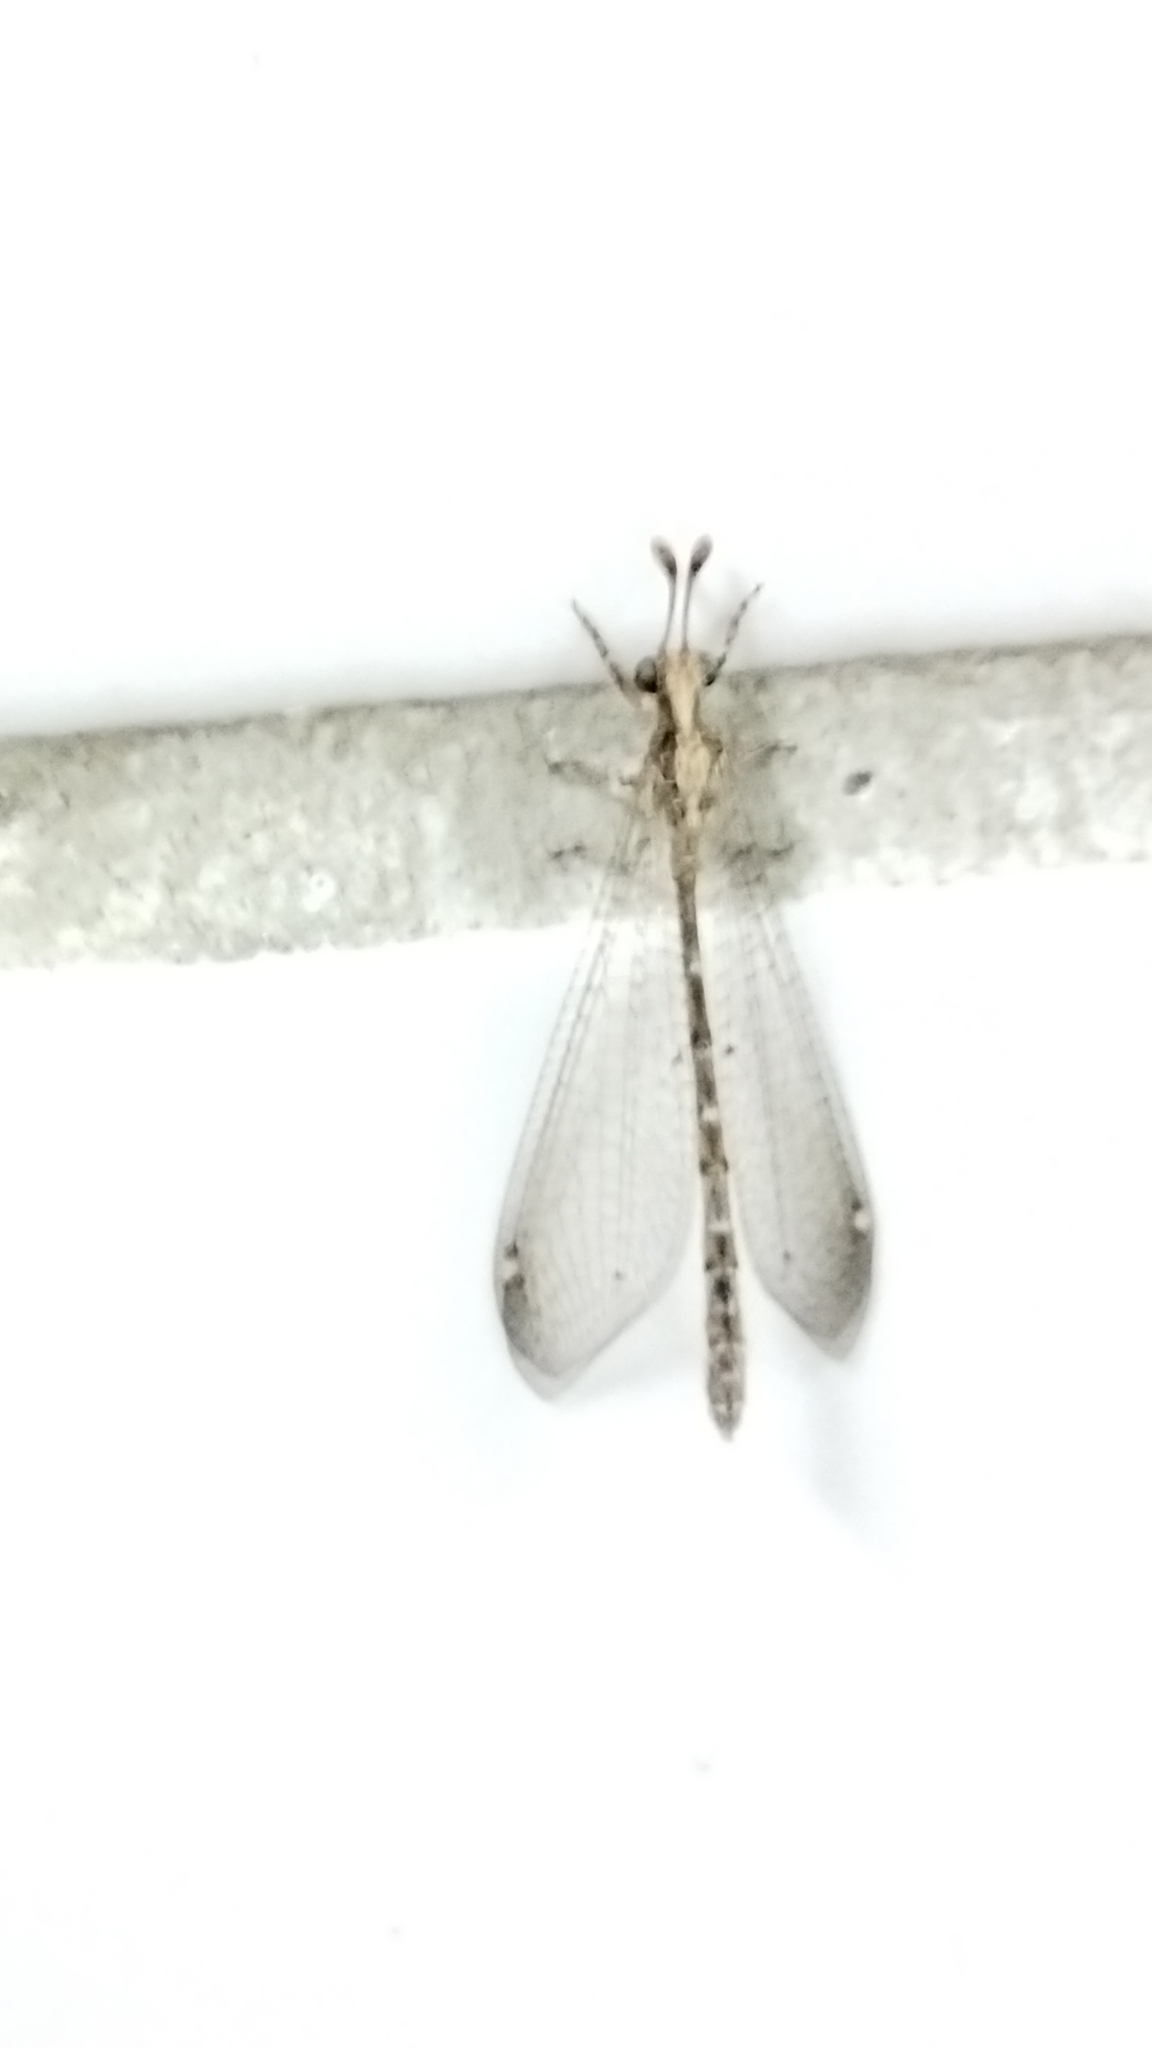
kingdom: Animalia
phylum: Arthropoda
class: Insecta
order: Neuroptera
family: Myrmeleontidae
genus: Austroleon
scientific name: Austroleon immitis
